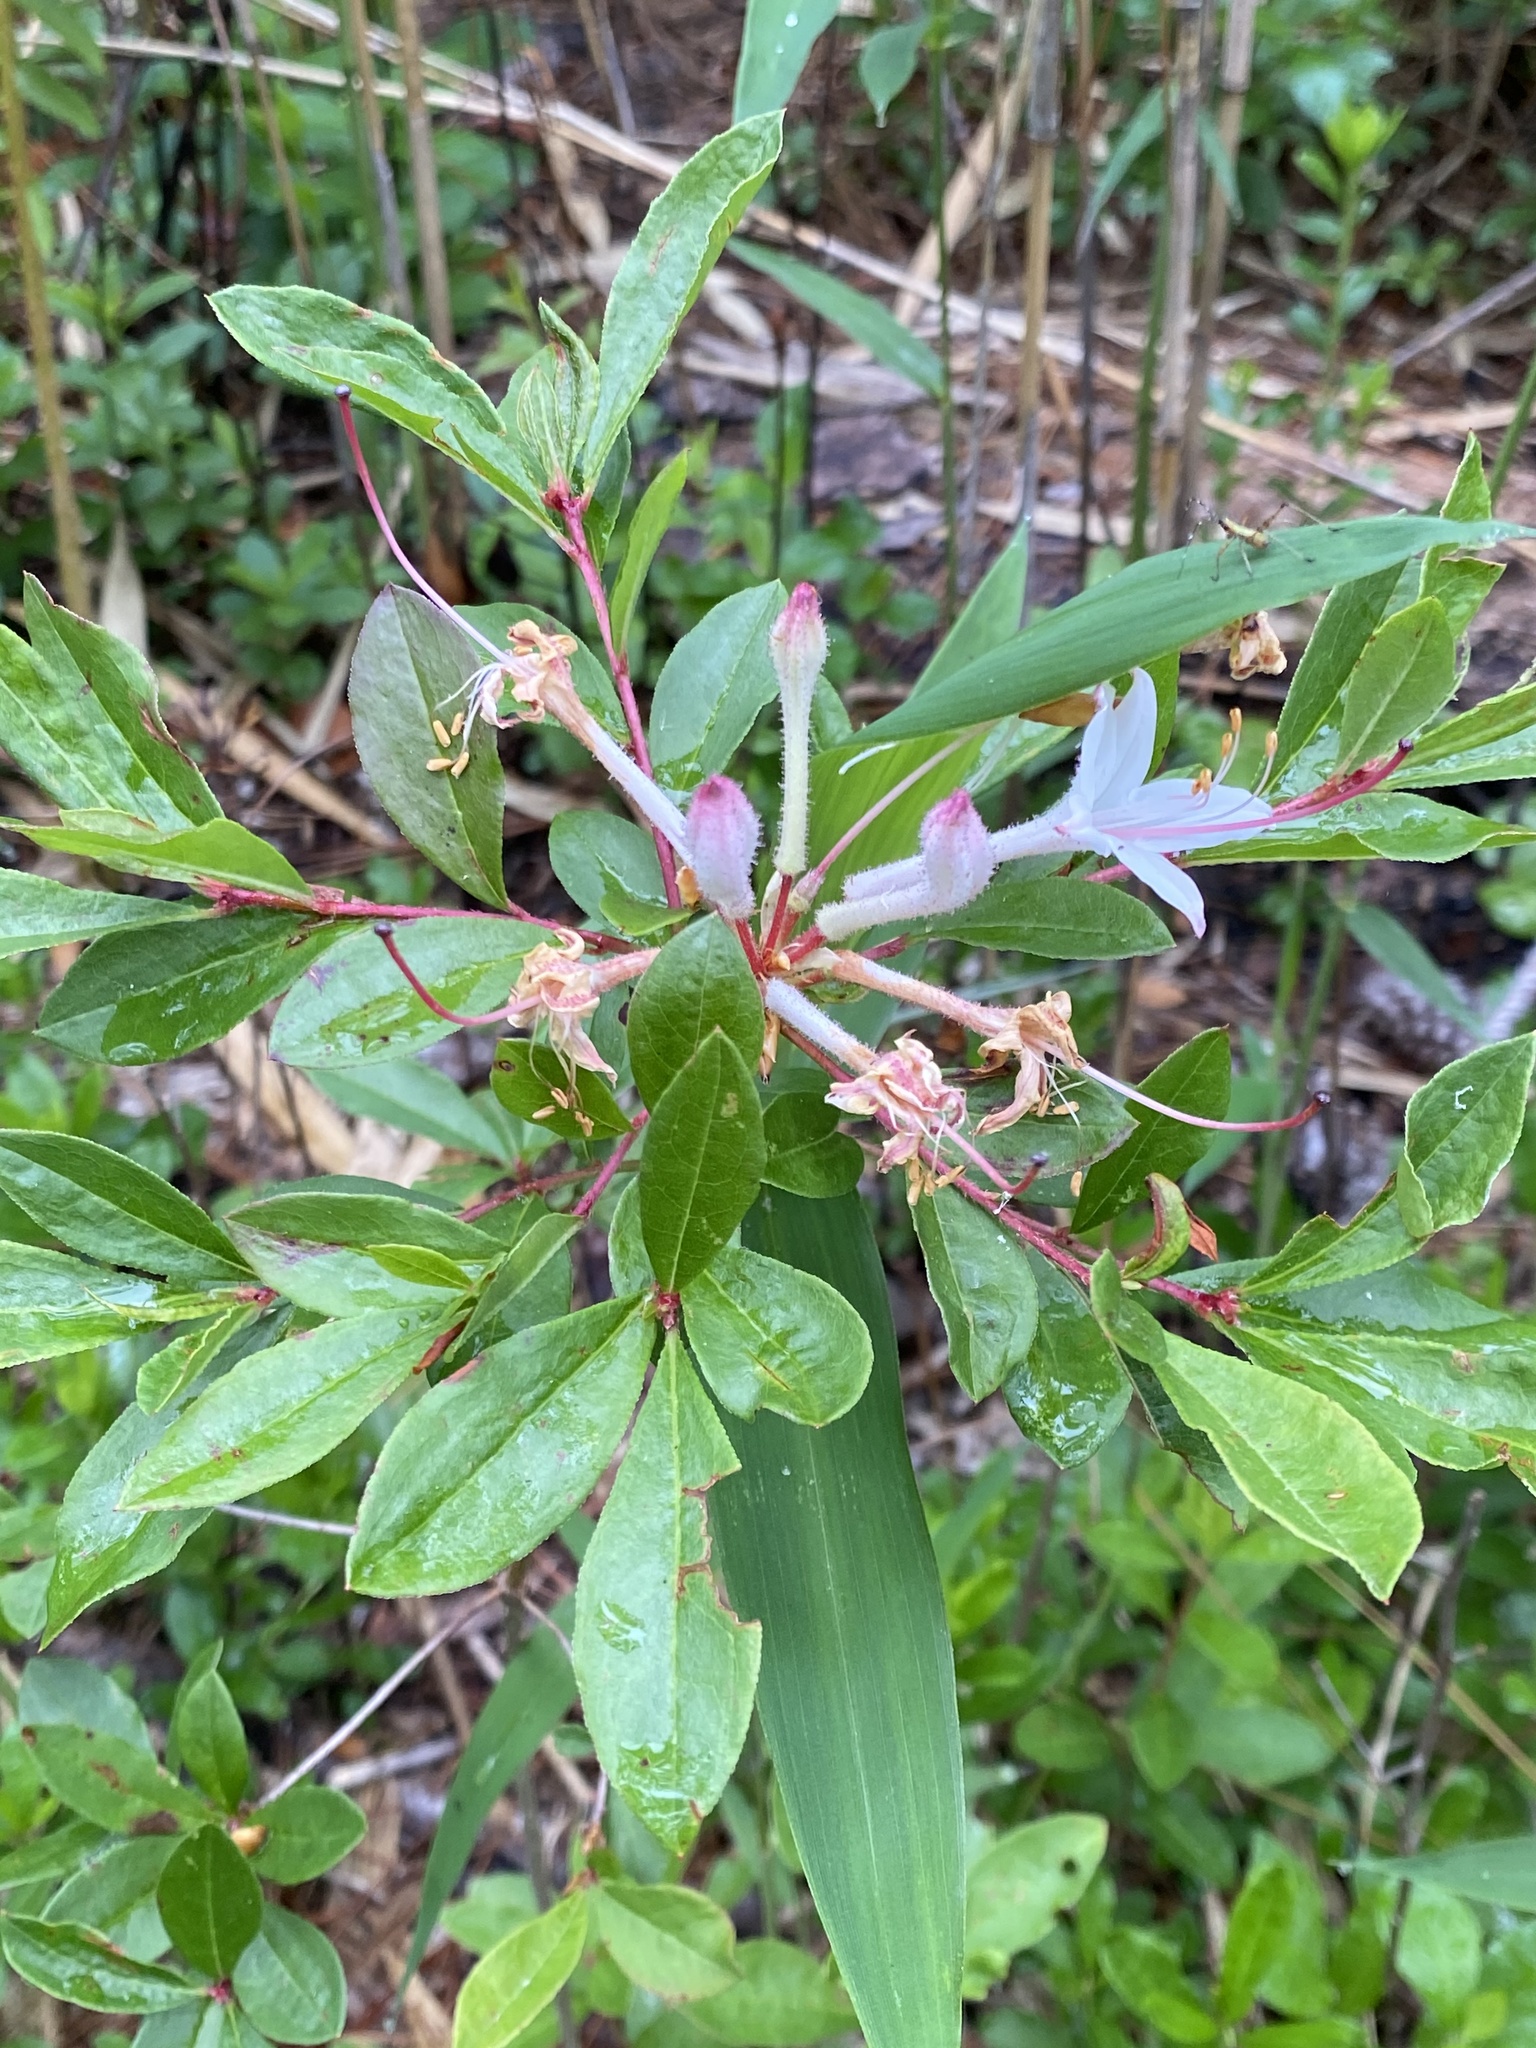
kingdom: Plantae
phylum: Tracheophyta
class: Magnoliopsida
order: Ericales
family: Ericaceae
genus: Rhododendron
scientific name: Rhododendron viscosum
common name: Clammy azalea
